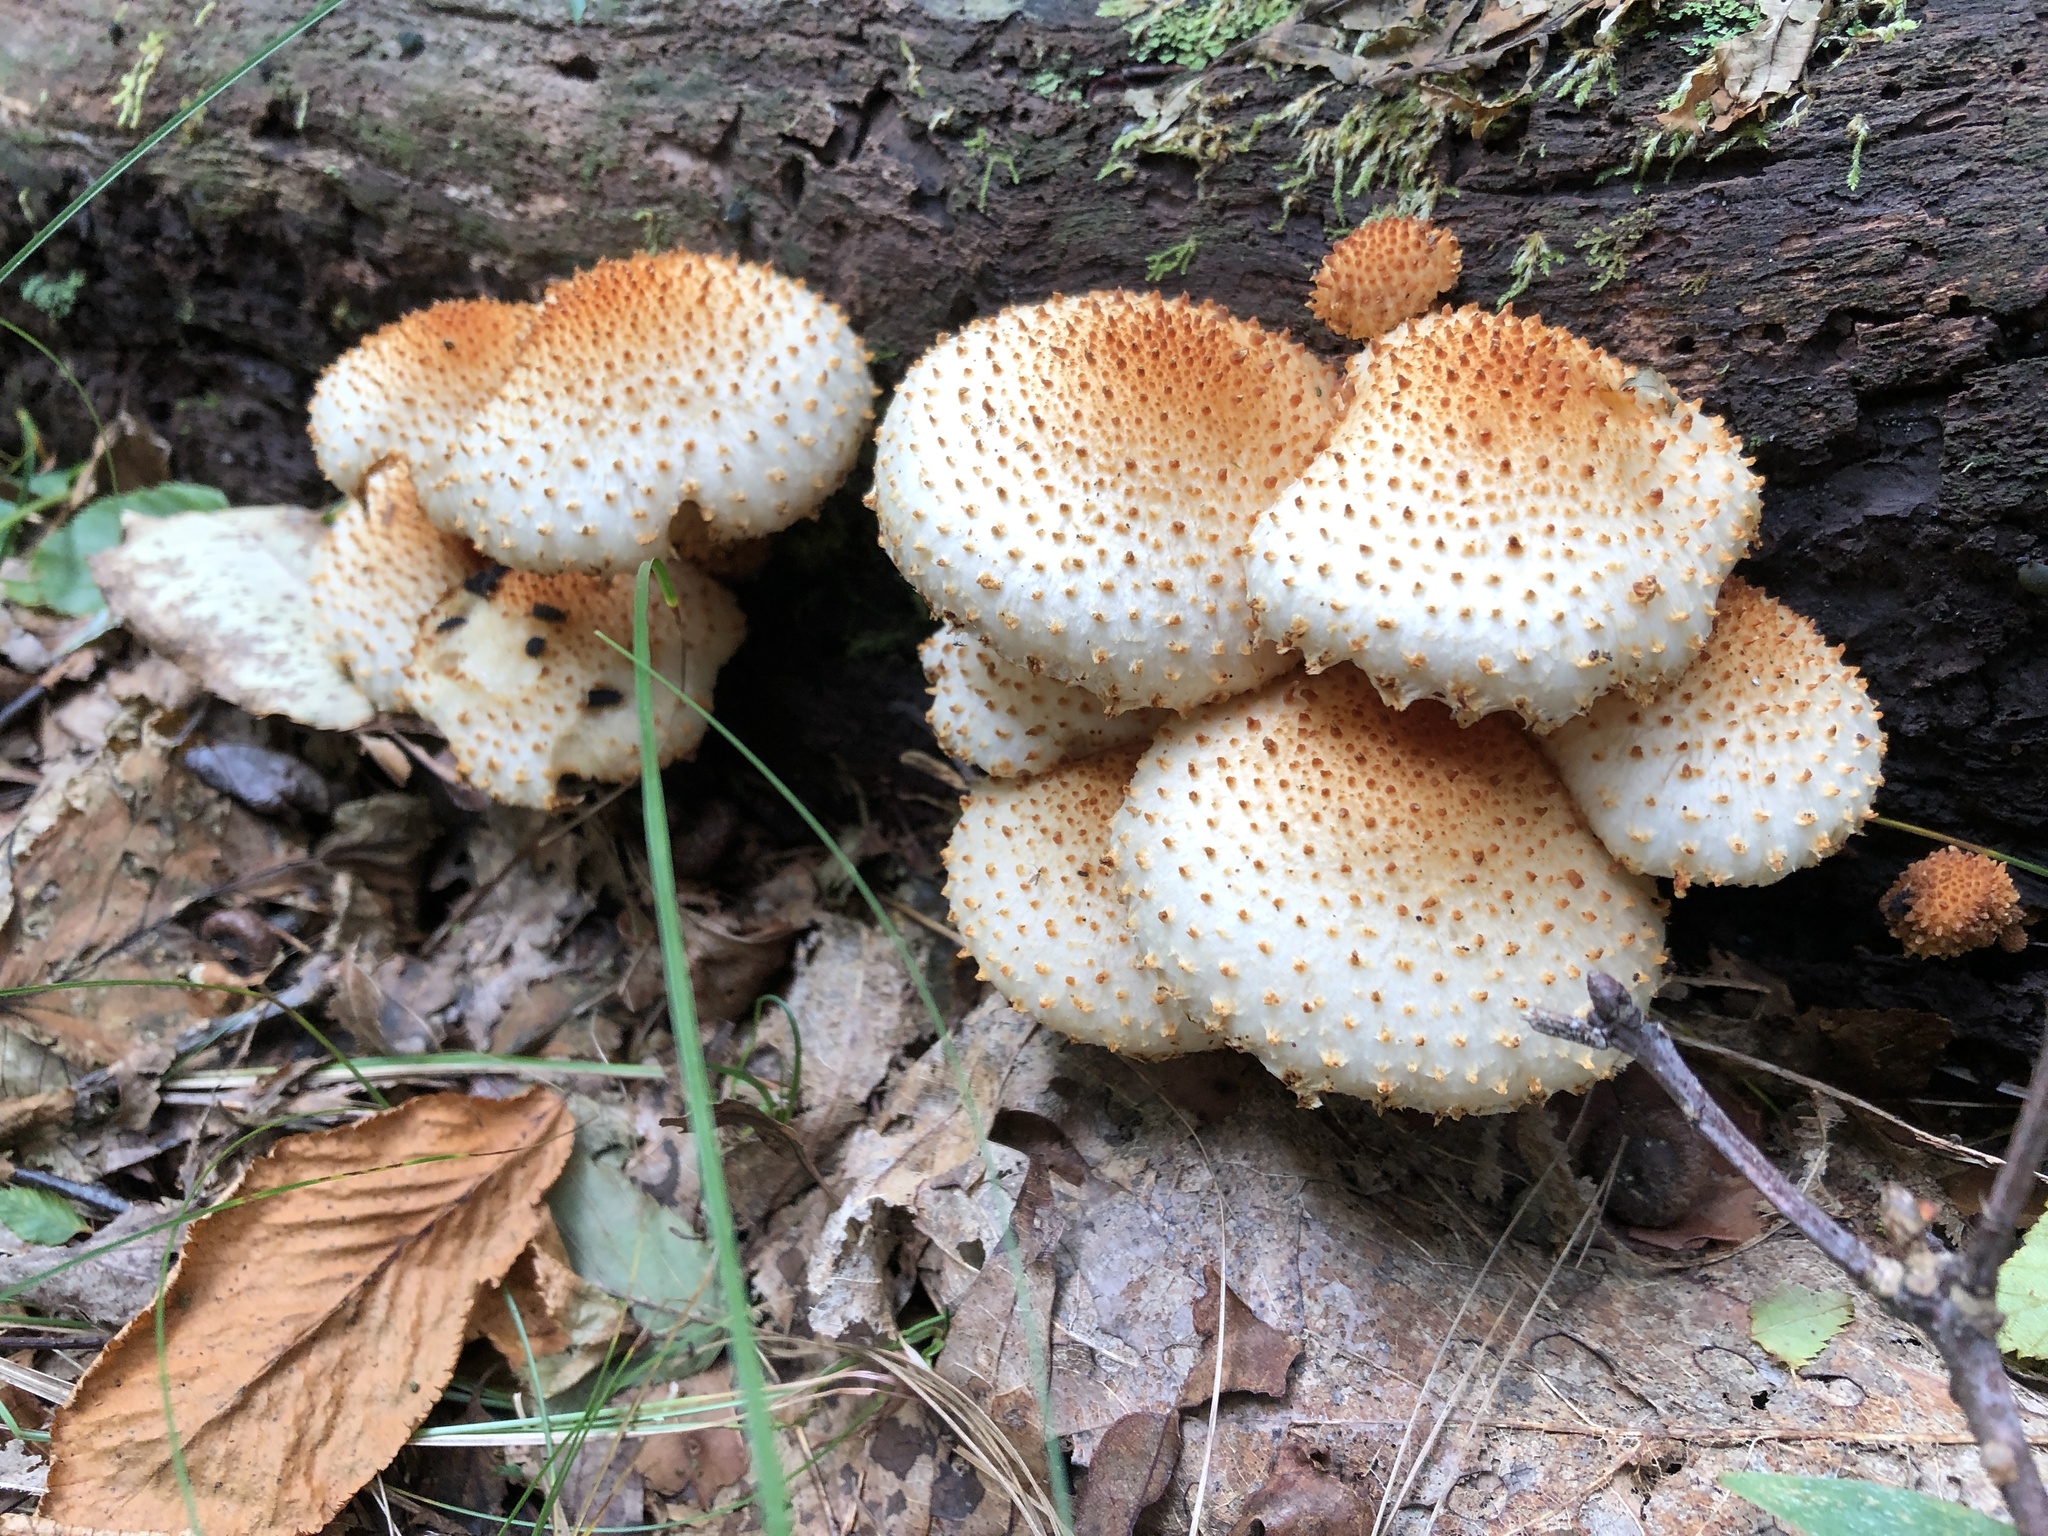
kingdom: Fungi
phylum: Basidiomycota
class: Agaricomycetes
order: Agaricales
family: Strophariaceae
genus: Pholiota
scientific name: Pholiota squarrosa
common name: Shaggy pholiota
